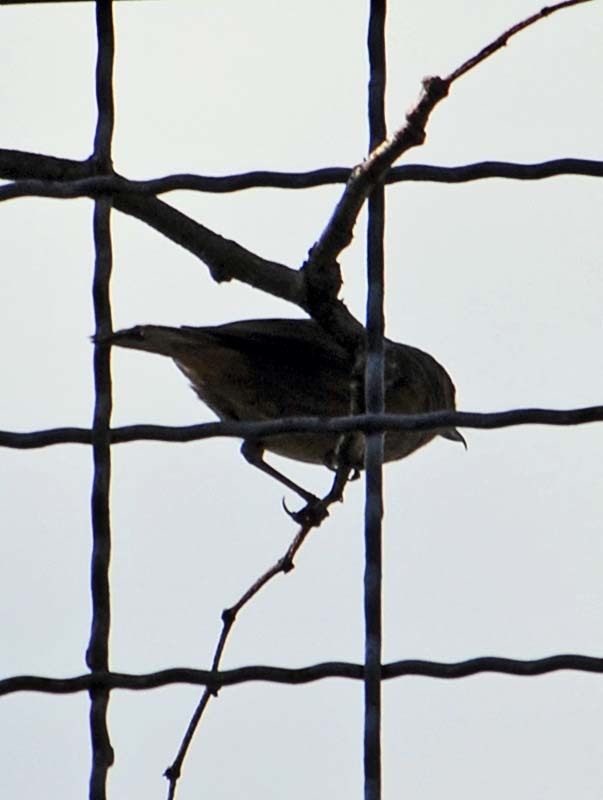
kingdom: Animalia
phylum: Chordata
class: Aves
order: Passeriformes
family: Thraupidae
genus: Diglossa
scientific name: Diglossa baritula
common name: Cinnamon-bellied flowerpiercer
